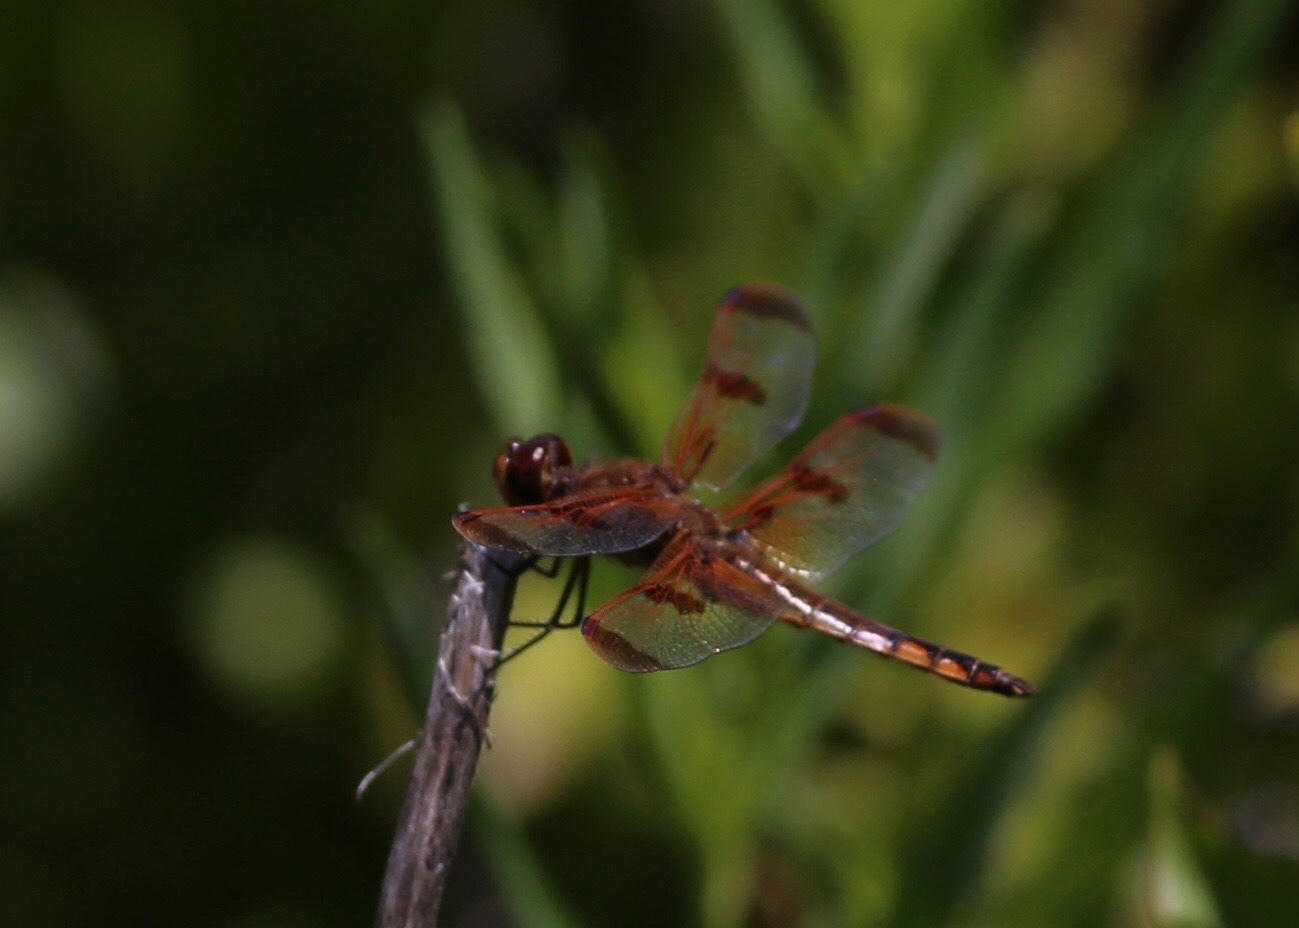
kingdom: Animalia
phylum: Arthropoda
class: Insecta
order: Odonata
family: Libellulidae
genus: Libellula
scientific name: Libellula semifasciata
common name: Painted skimmer
